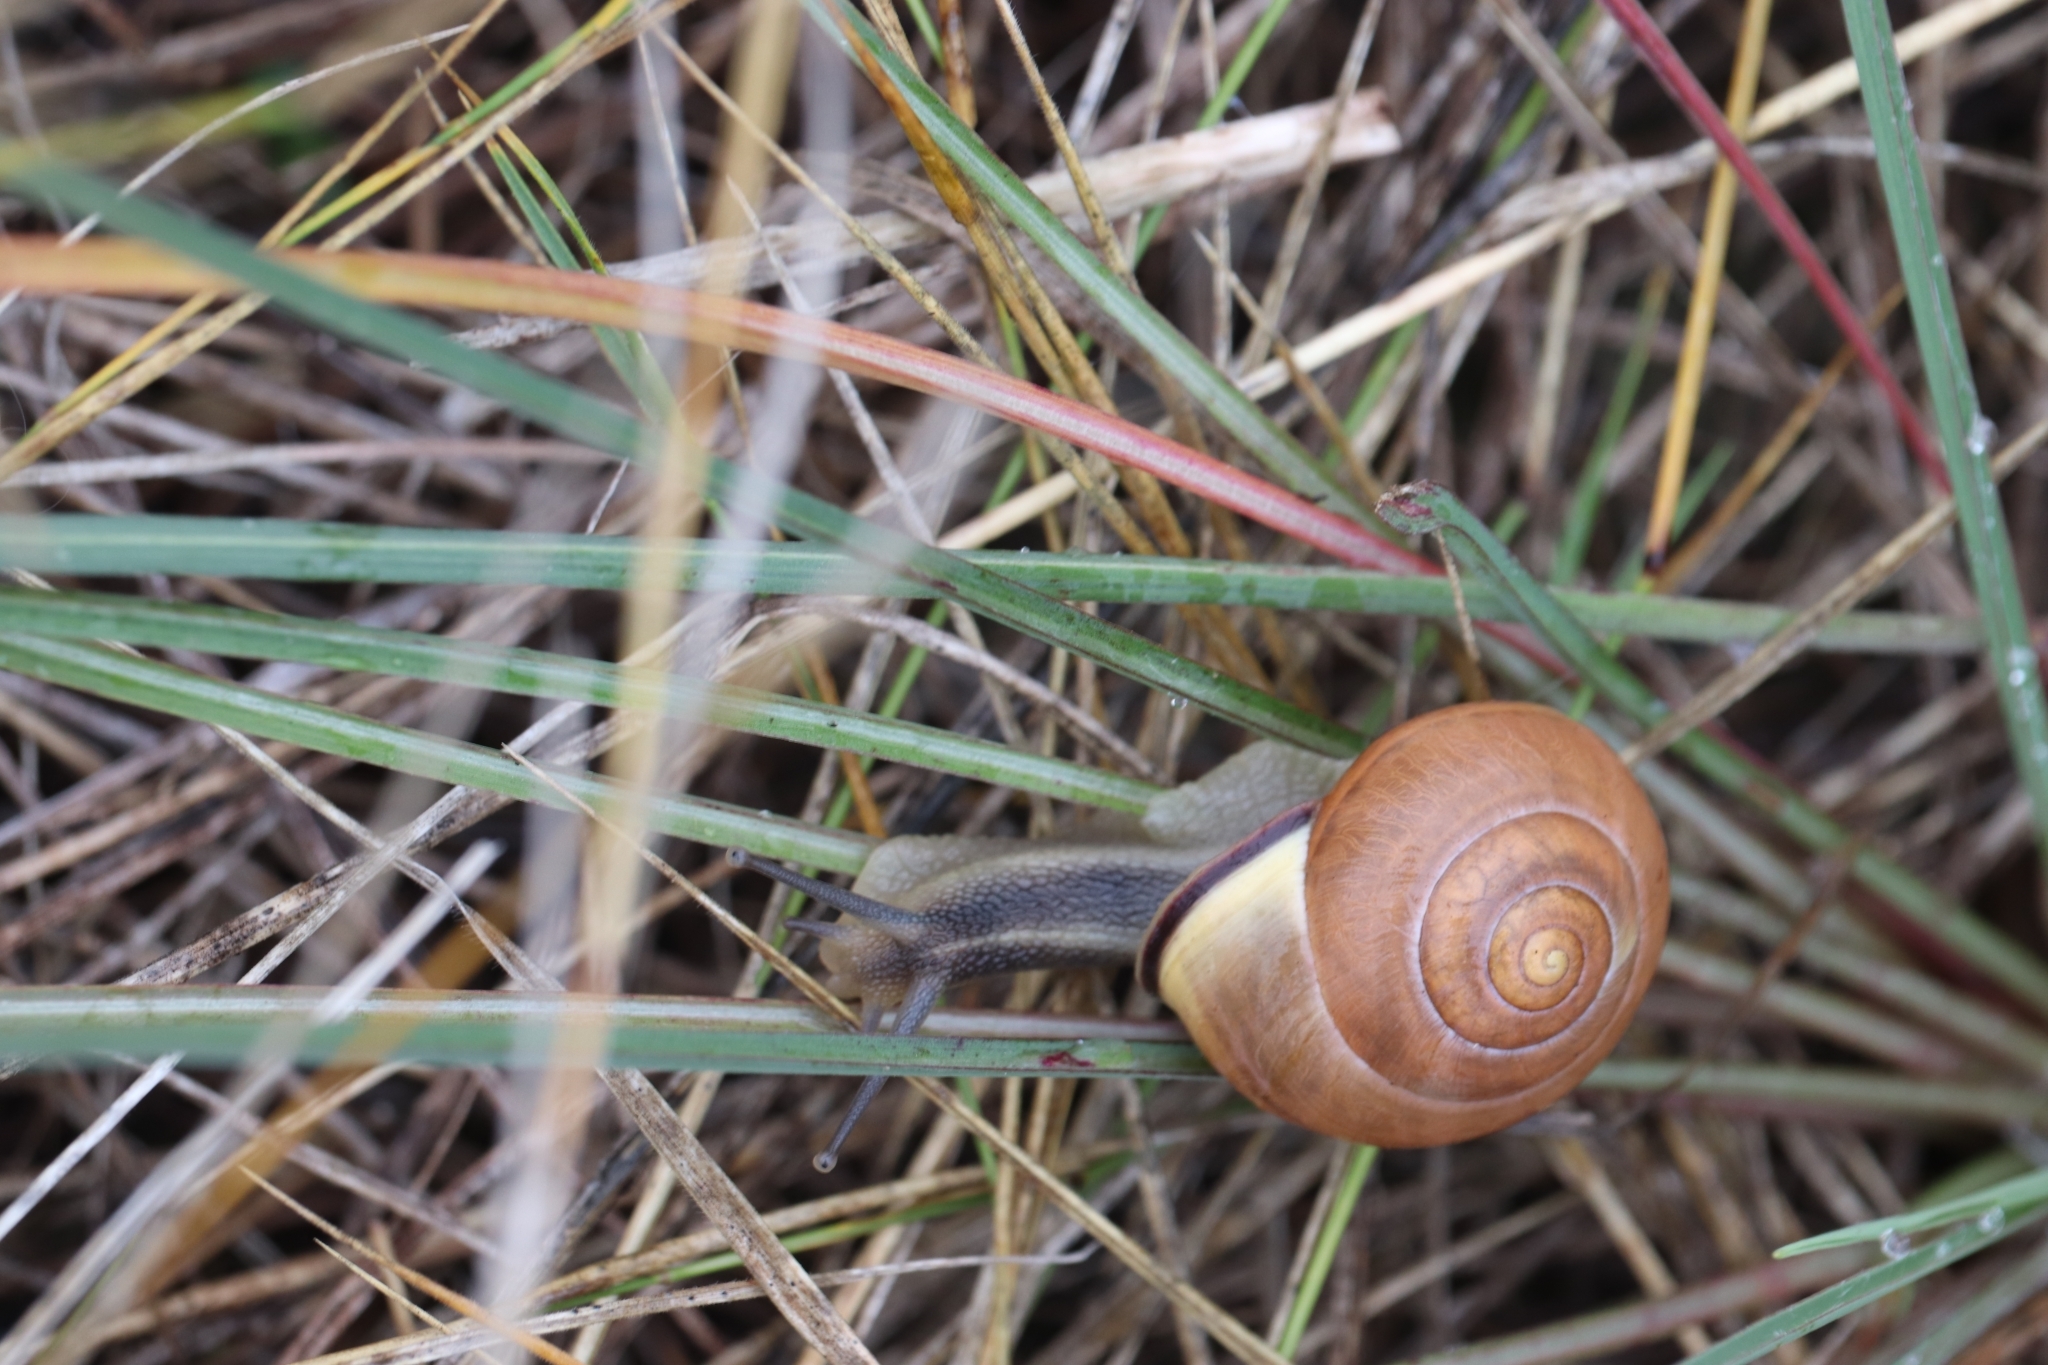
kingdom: Animalia
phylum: Mollusca
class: Gastropoda
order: Stylommatophora
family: Helicidae
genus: Cepaea
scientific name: Cepaea nemoralis
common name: Grovesnail
